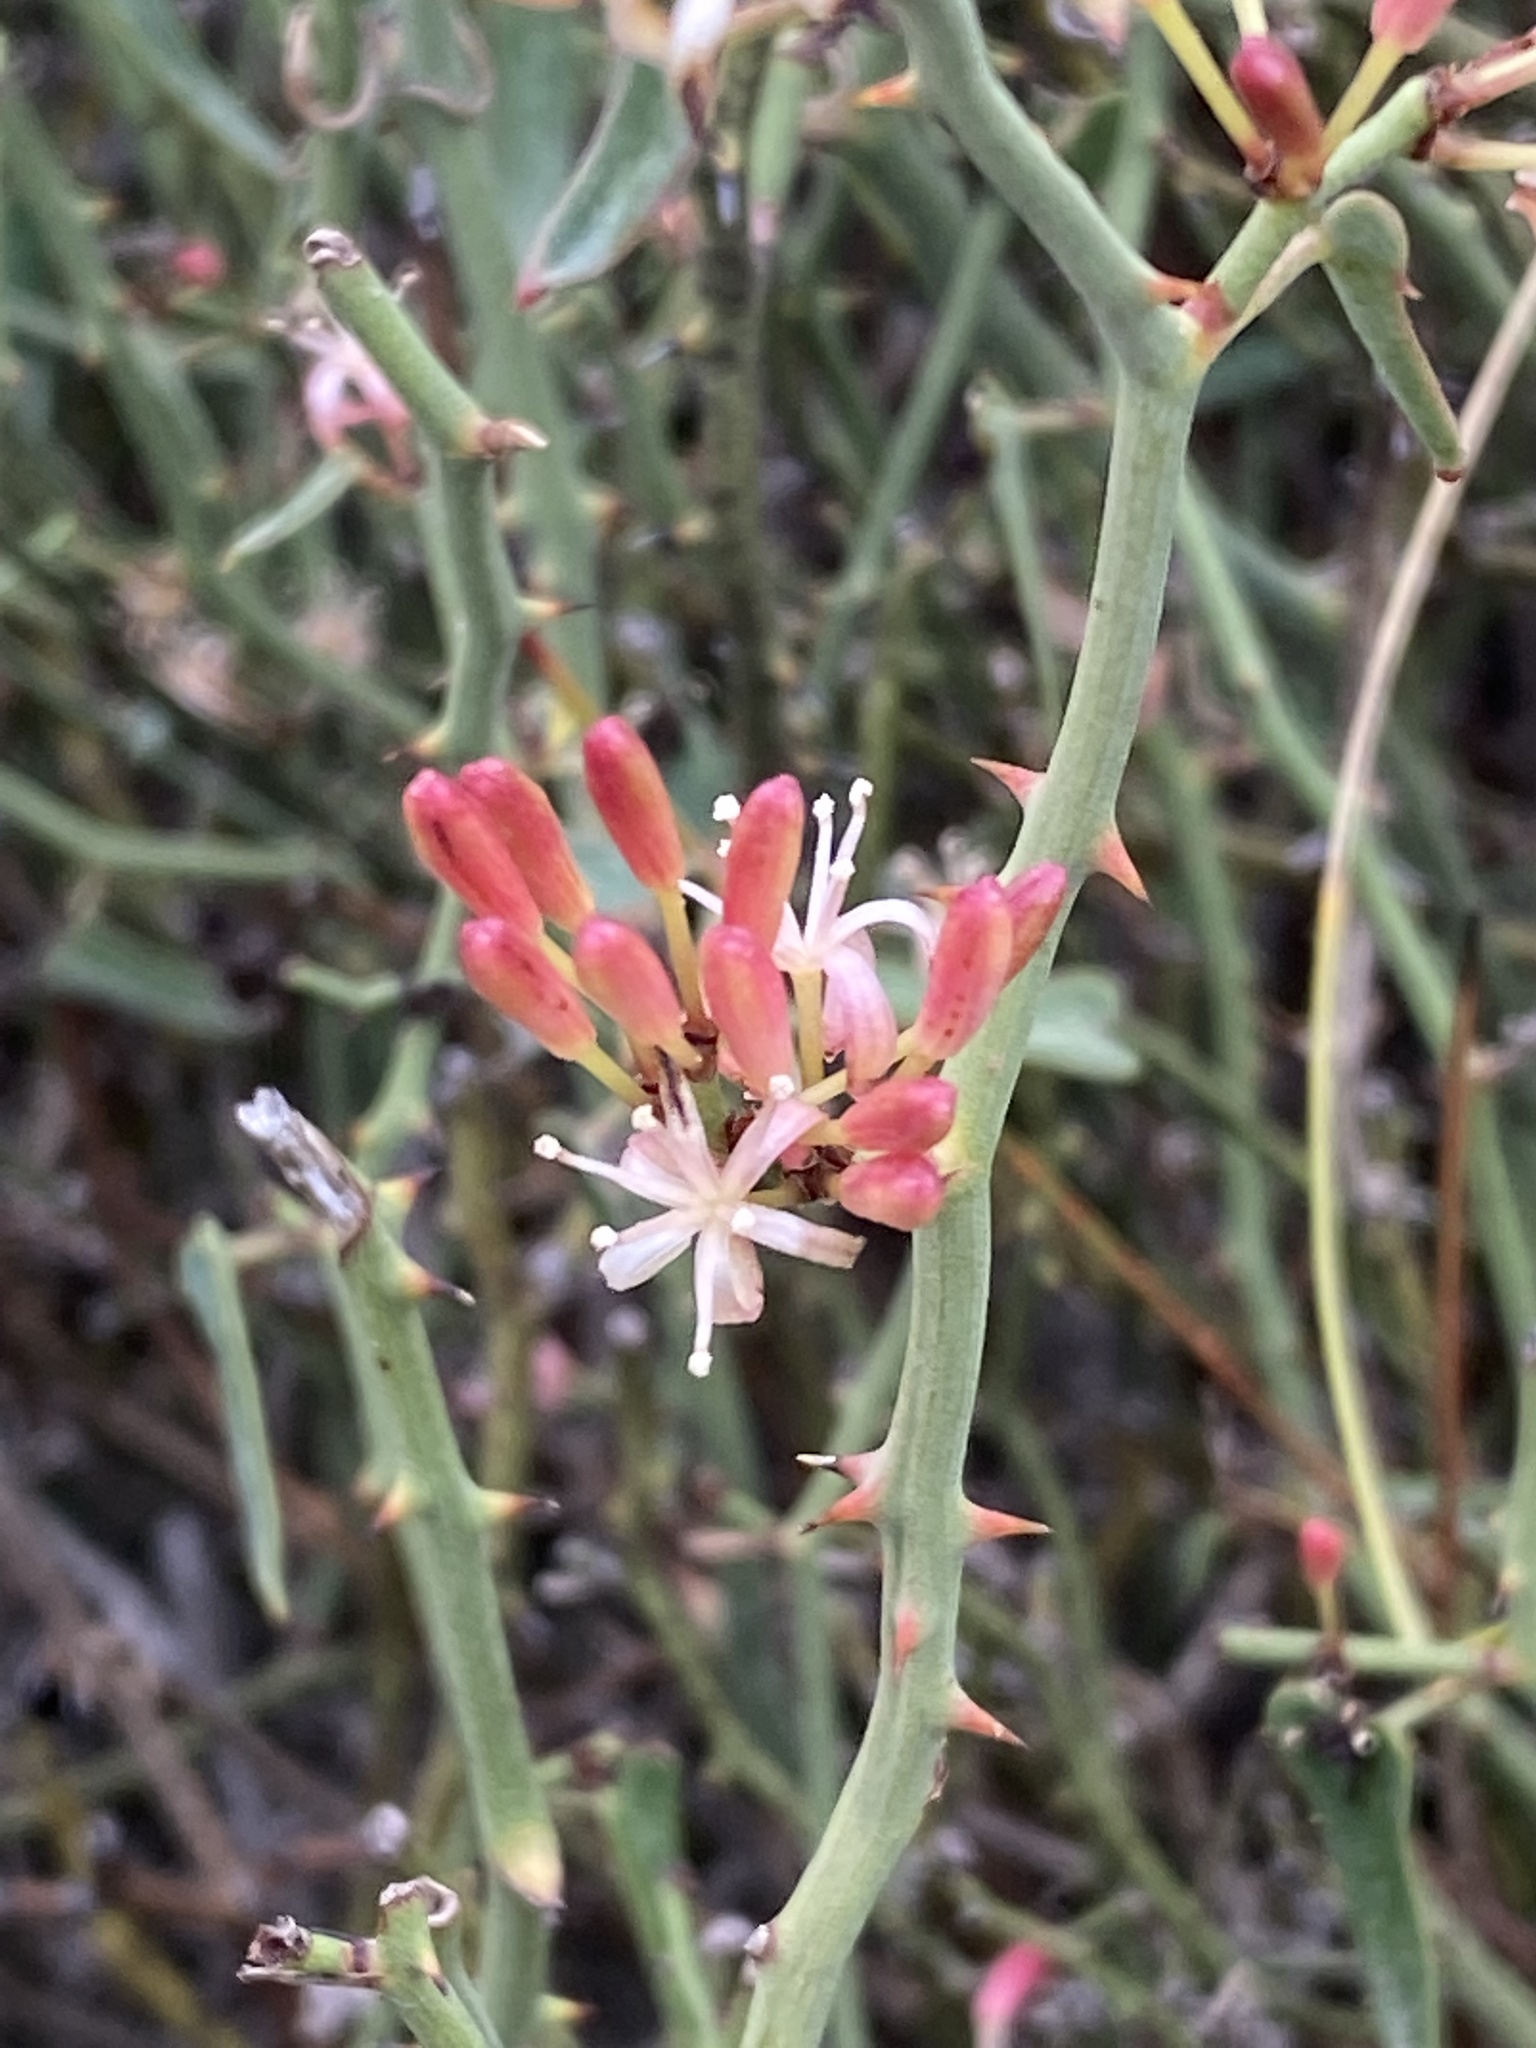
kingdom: Plantae
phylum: Tracheophyta
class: Liliopsida
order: Liliales
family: Smilacaceae
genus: Smilax
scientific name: Smilax aspera
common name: Common smilax
